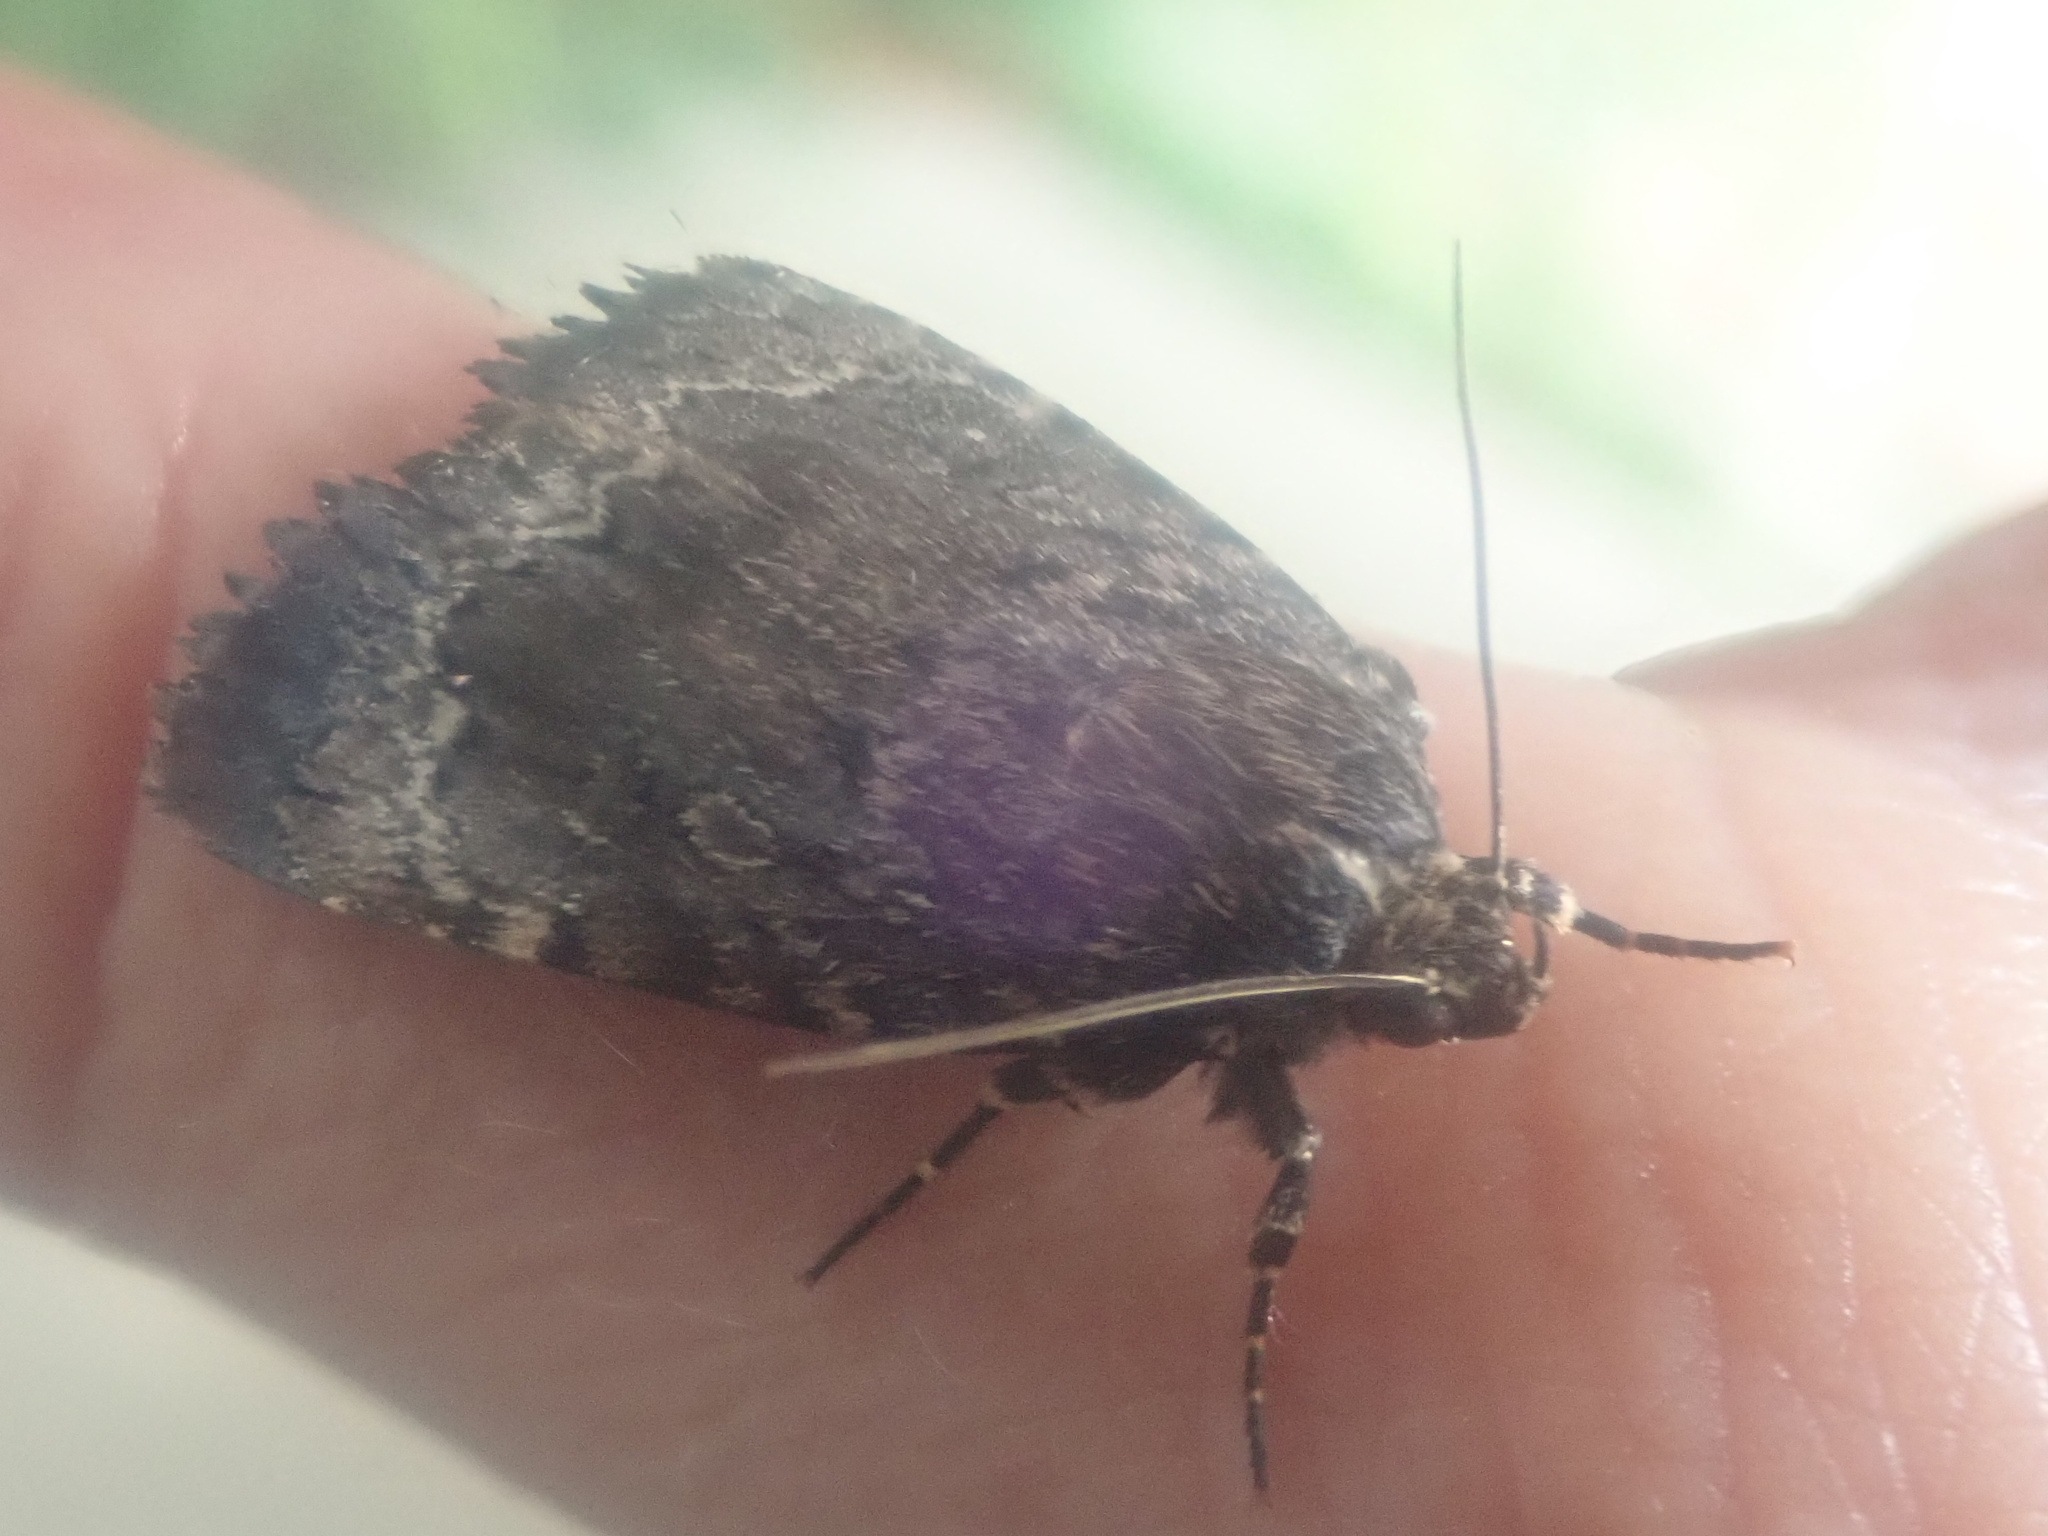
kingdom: Animalia
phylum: Arthropoda
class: Insecta
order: Lepidoptera
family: Noctuidae
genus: Amphipyra
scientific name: Amphipyra pyramidoides
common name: American copper underwing
